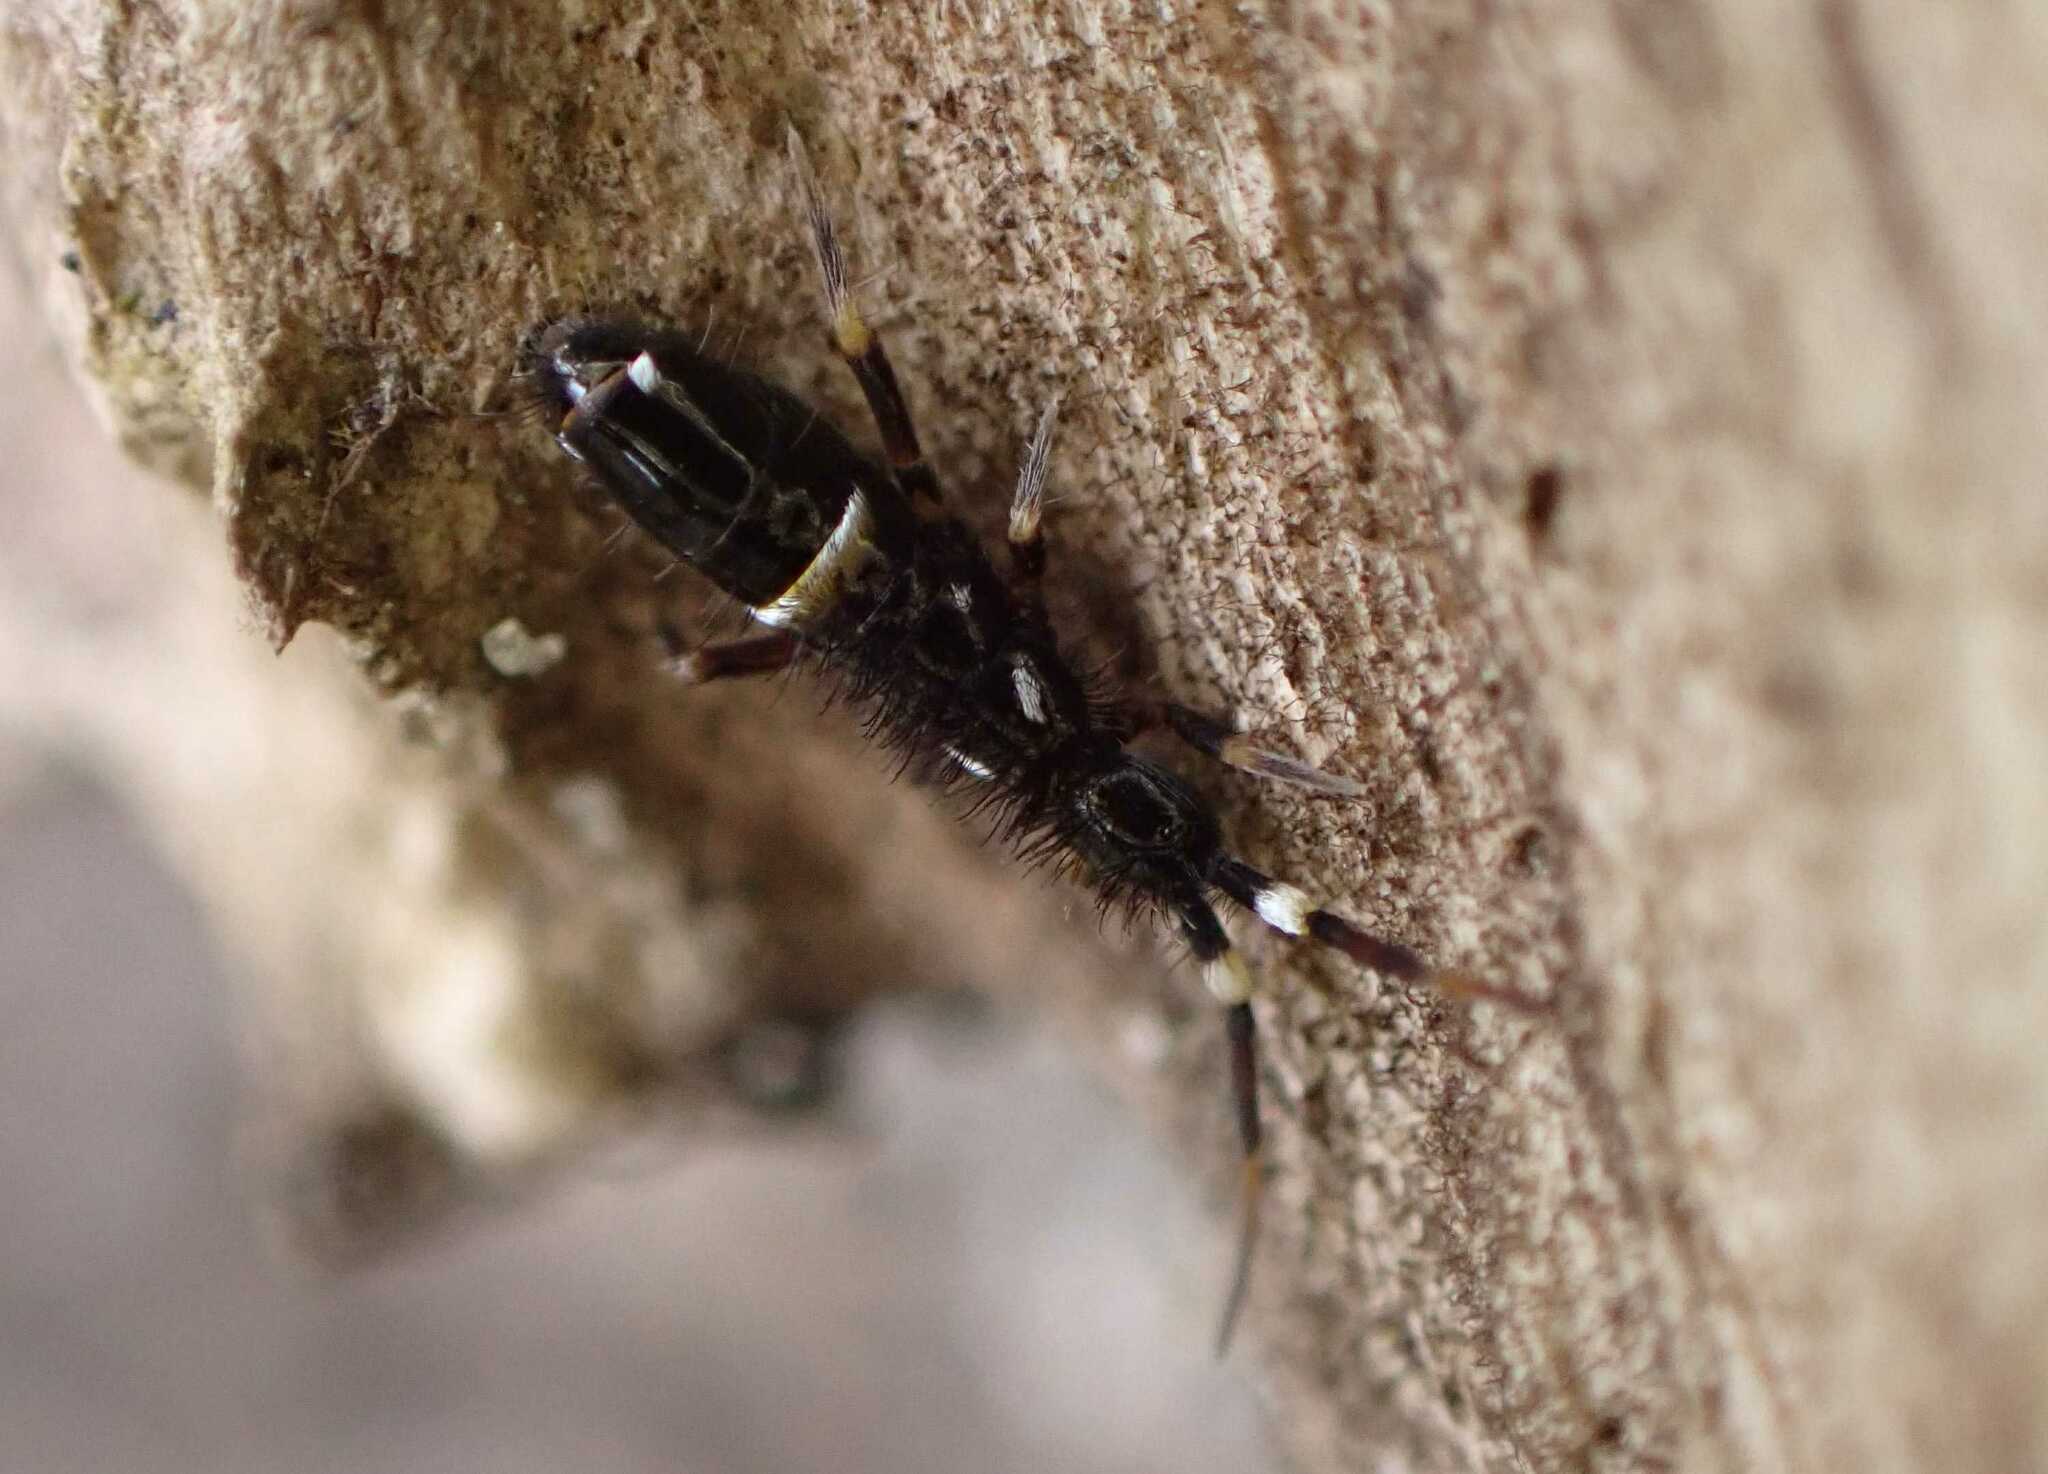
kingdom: Animalia
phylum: Arthropoda
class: Collembola
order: Entomobryomorpha
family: Orchesellidae
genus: Orchesella
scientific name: Orchesella cincta
